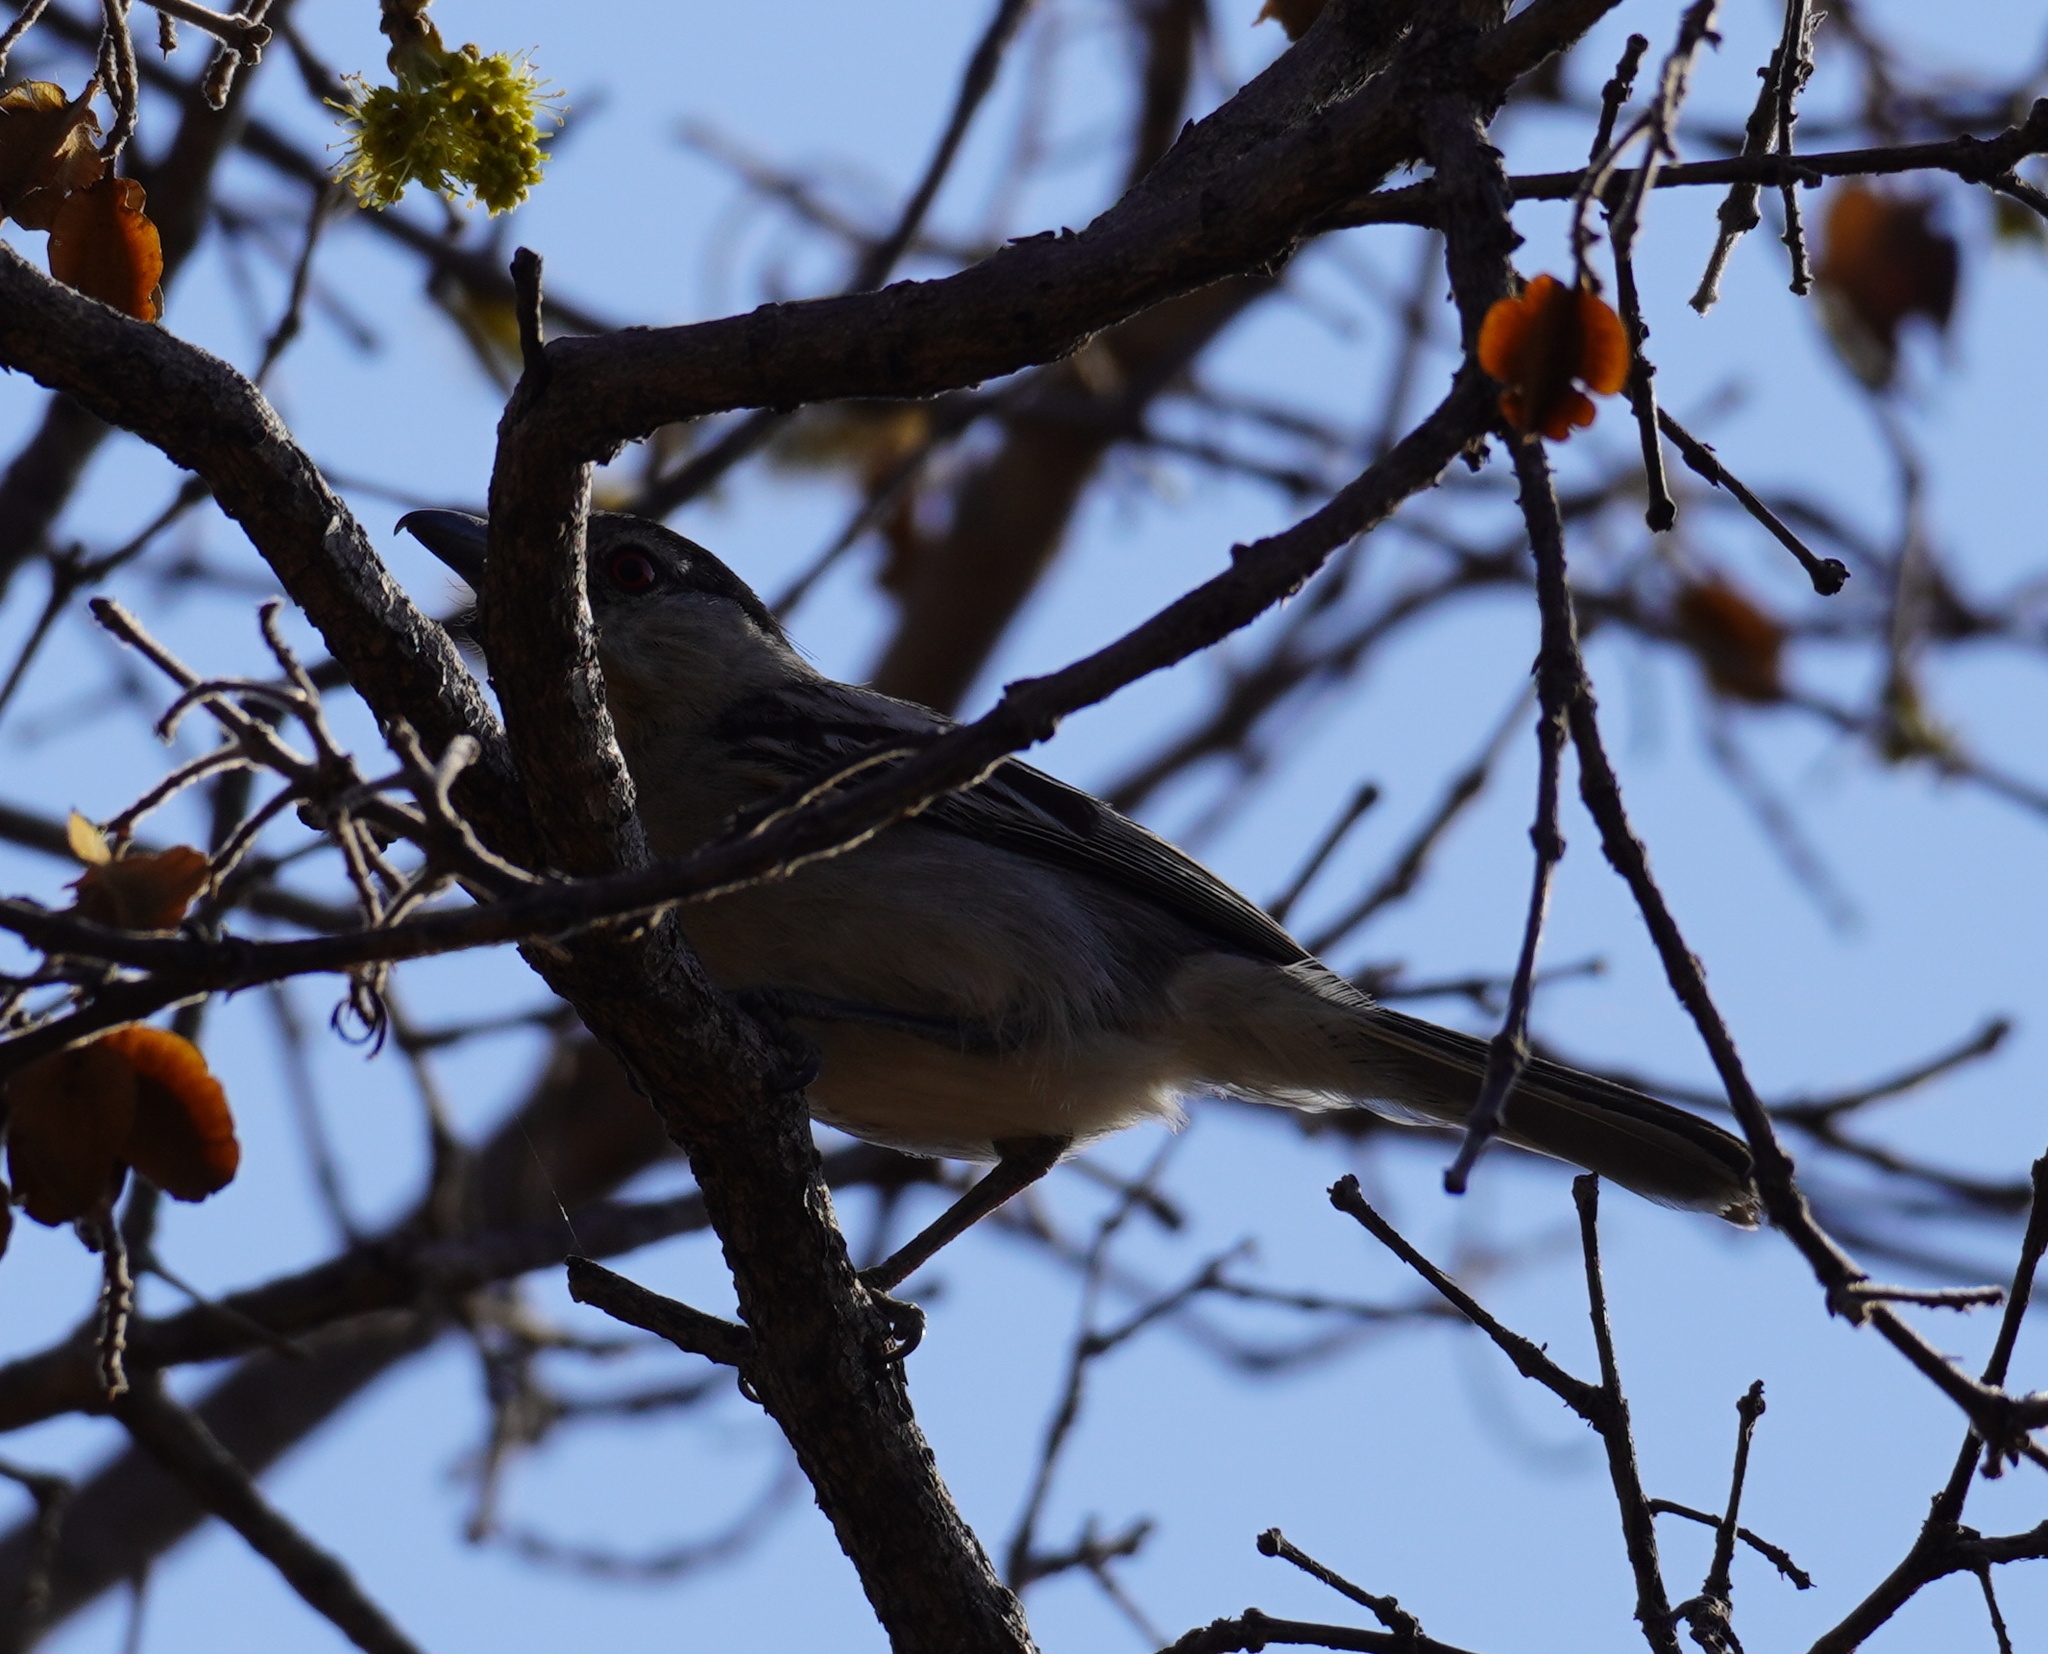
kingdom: Animalia
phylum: Chordata
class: Aves
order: Passeriformes
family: Malaconotidae
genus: Dryoscopus
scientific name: Dryoscopus cubla
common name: Black-backed puffback
